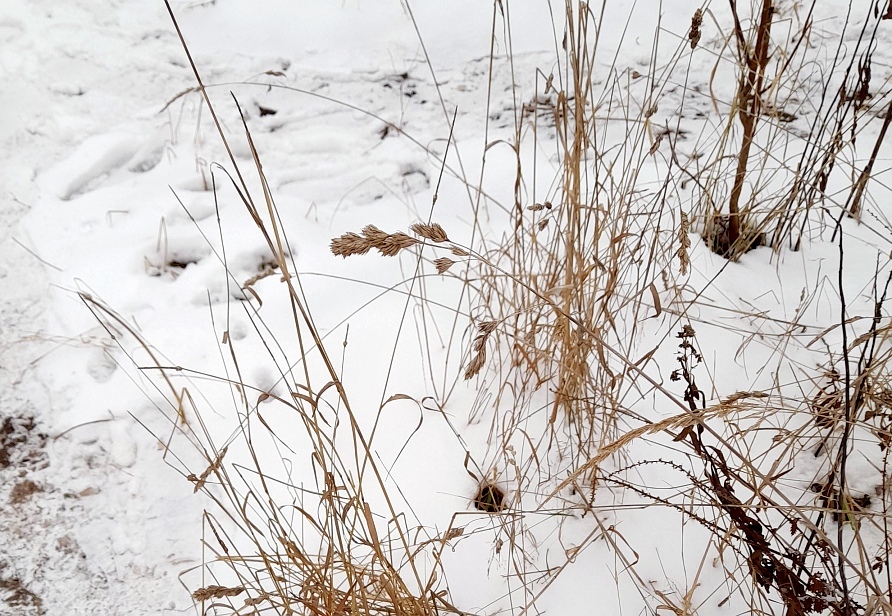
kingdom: Plantae
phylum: Tracheophyta
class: Liliopsida
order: Poales
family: Poaceae
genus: Dactylis
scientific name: Dactylis glomerata
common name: Orchardgrass
